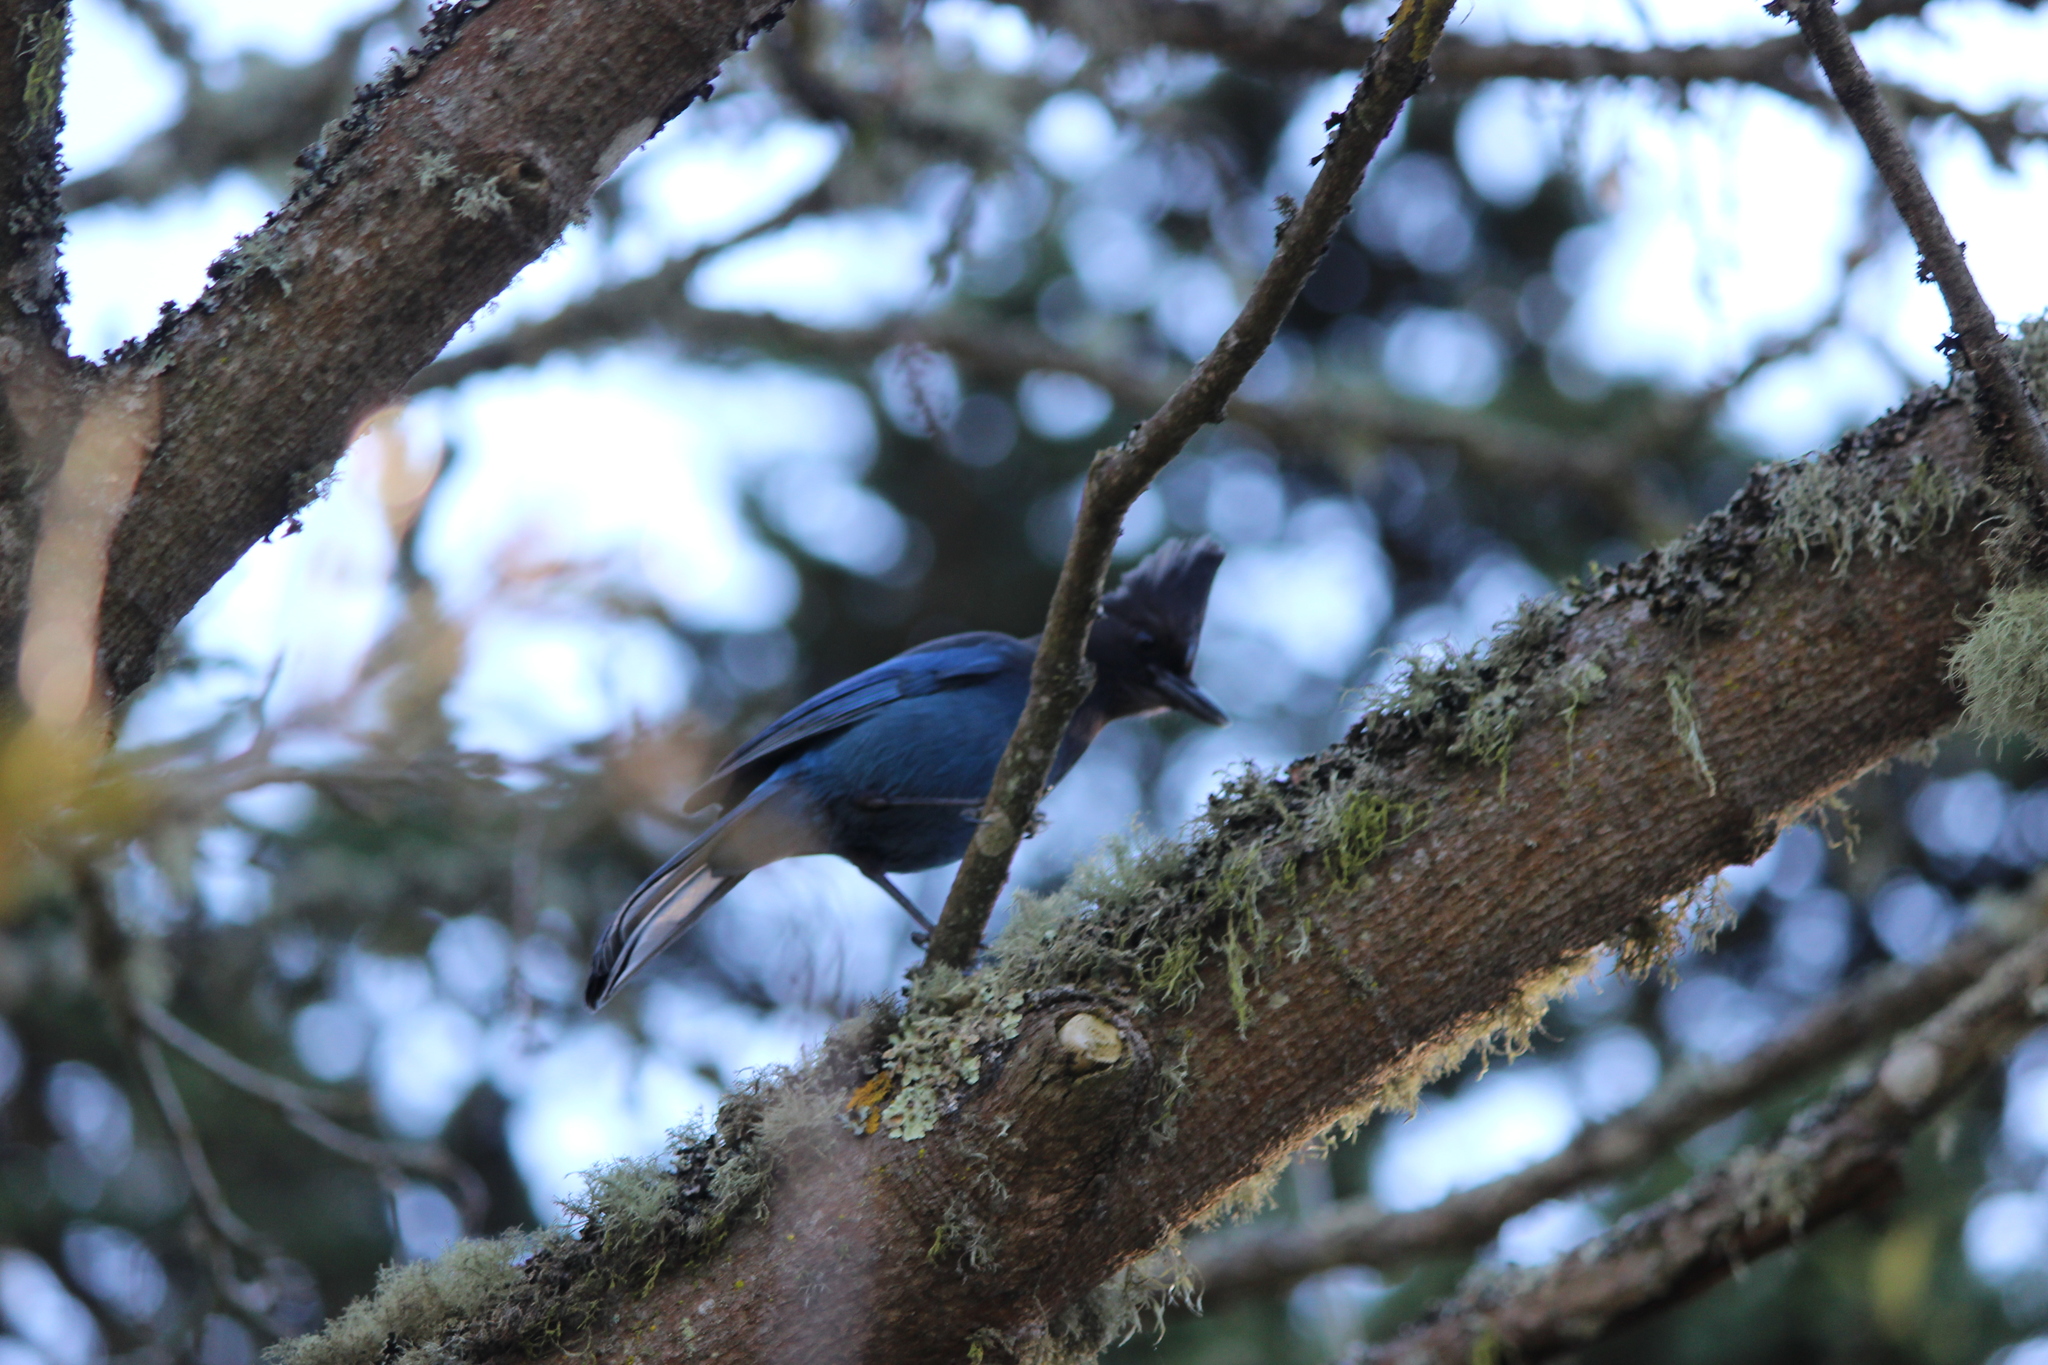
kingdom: Animalia
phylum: Chordata
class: Aves
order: Passeriformes
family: Corvidae
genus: Cyanocitta
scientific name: Cyanocitta stelleri
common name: Steller's jay
